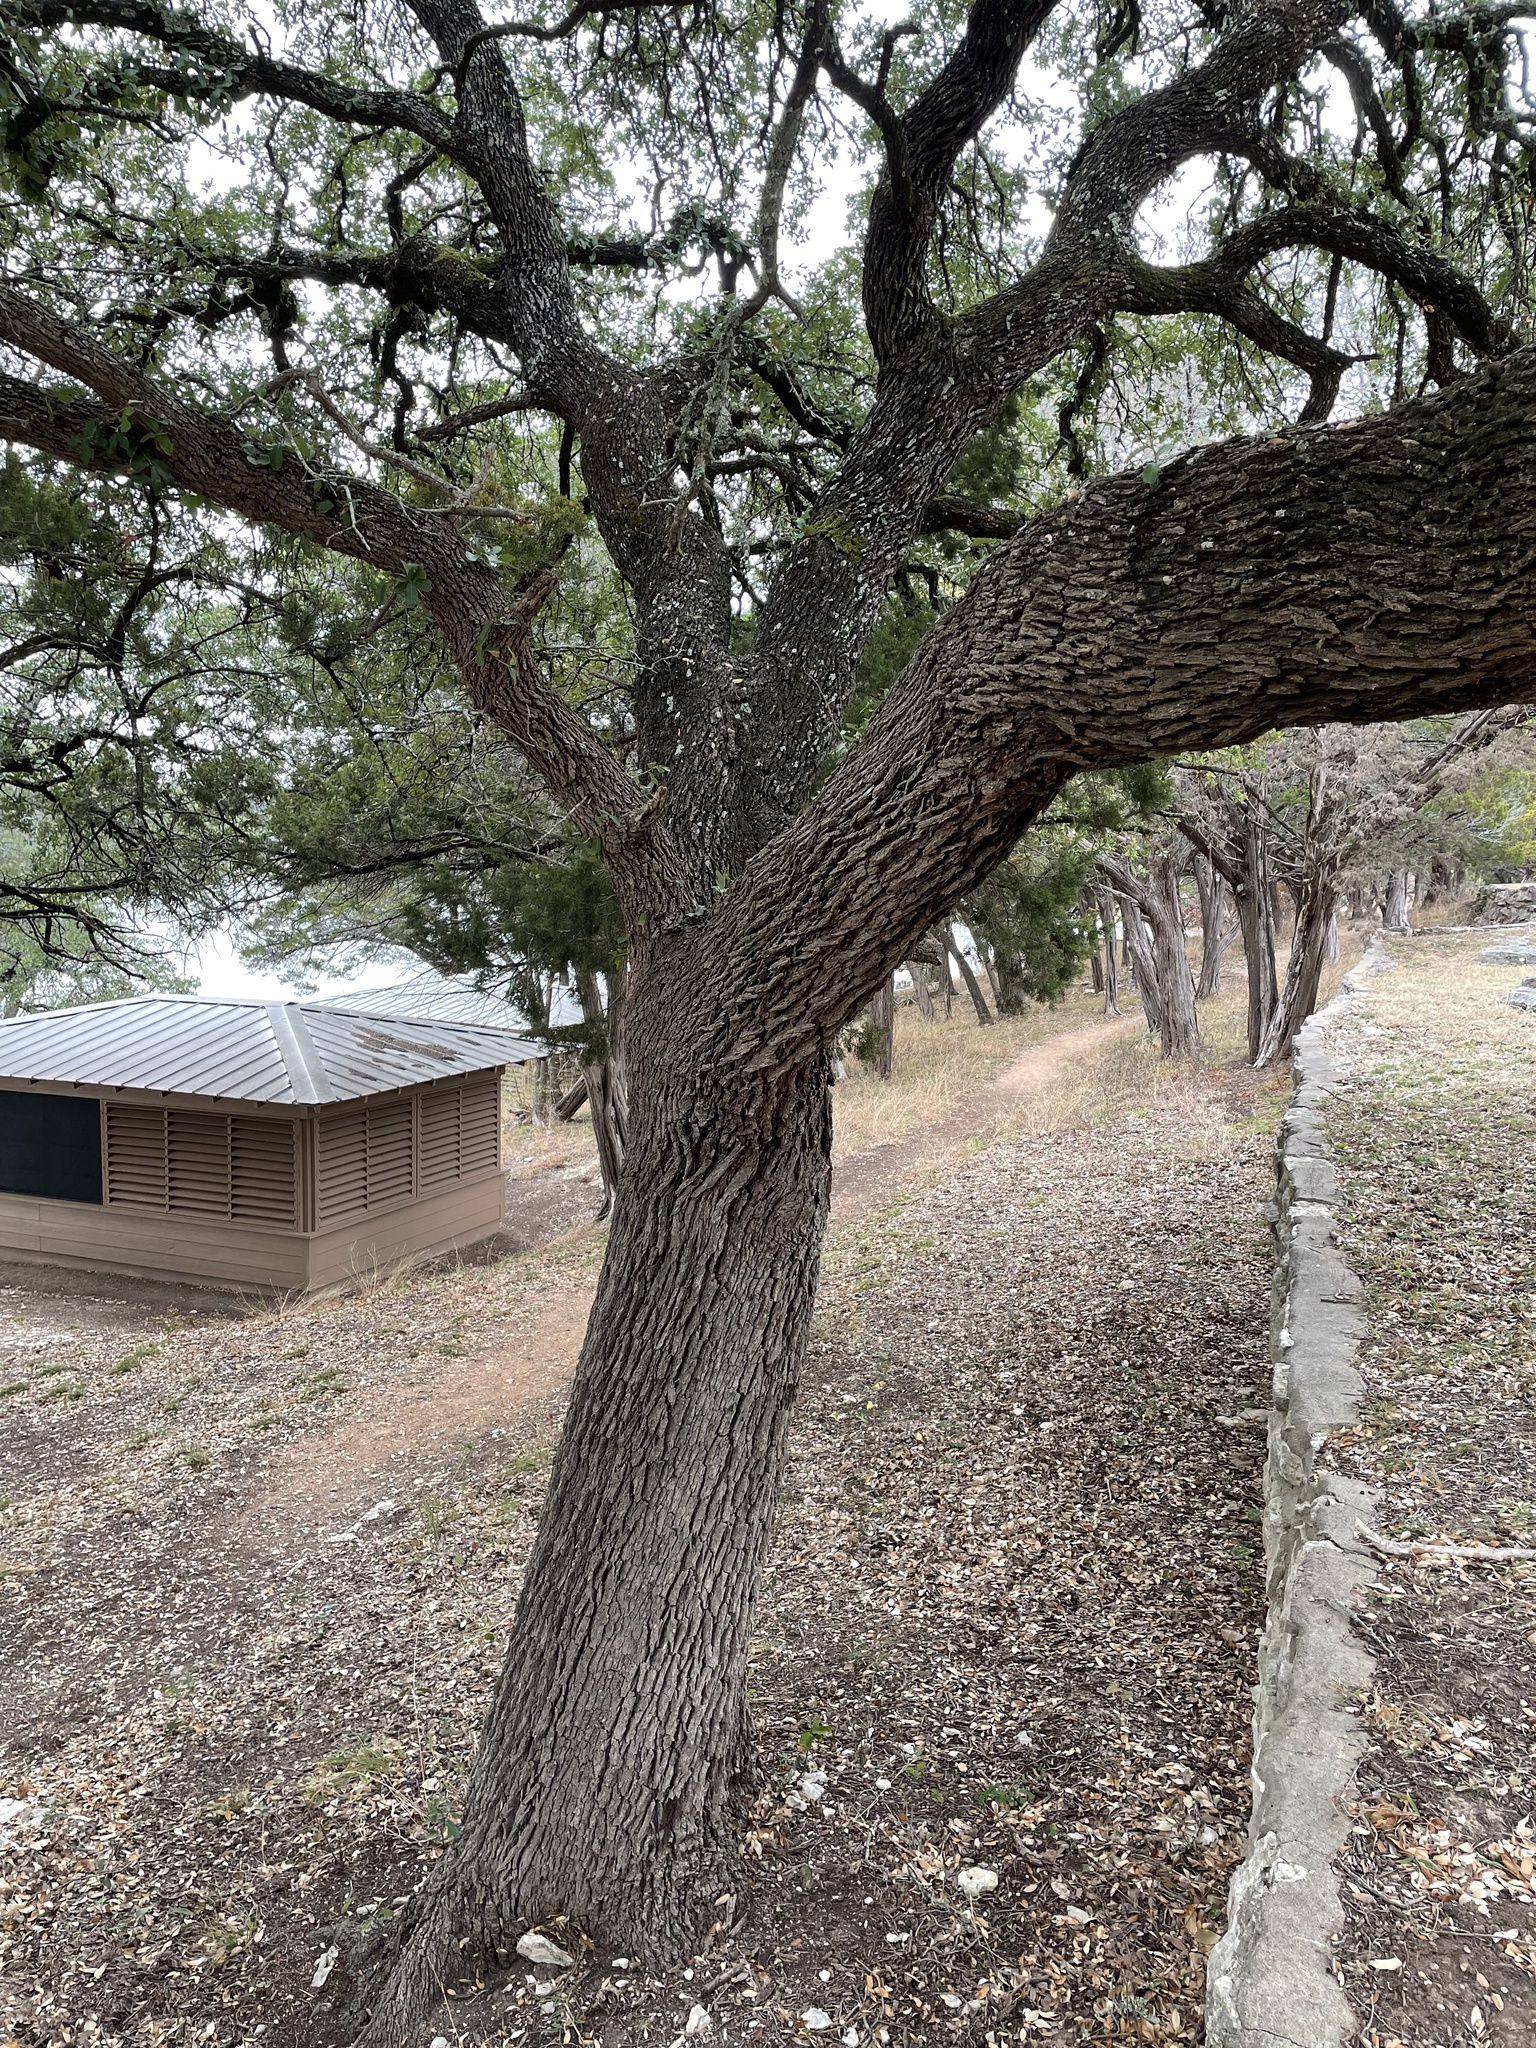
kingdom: Plantae
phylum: Tracheophyta
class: Magnoliopsida
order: Fagales
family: Fagaceae
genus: Quercus
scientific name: Quercus fusiformis
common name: Texas live oak
